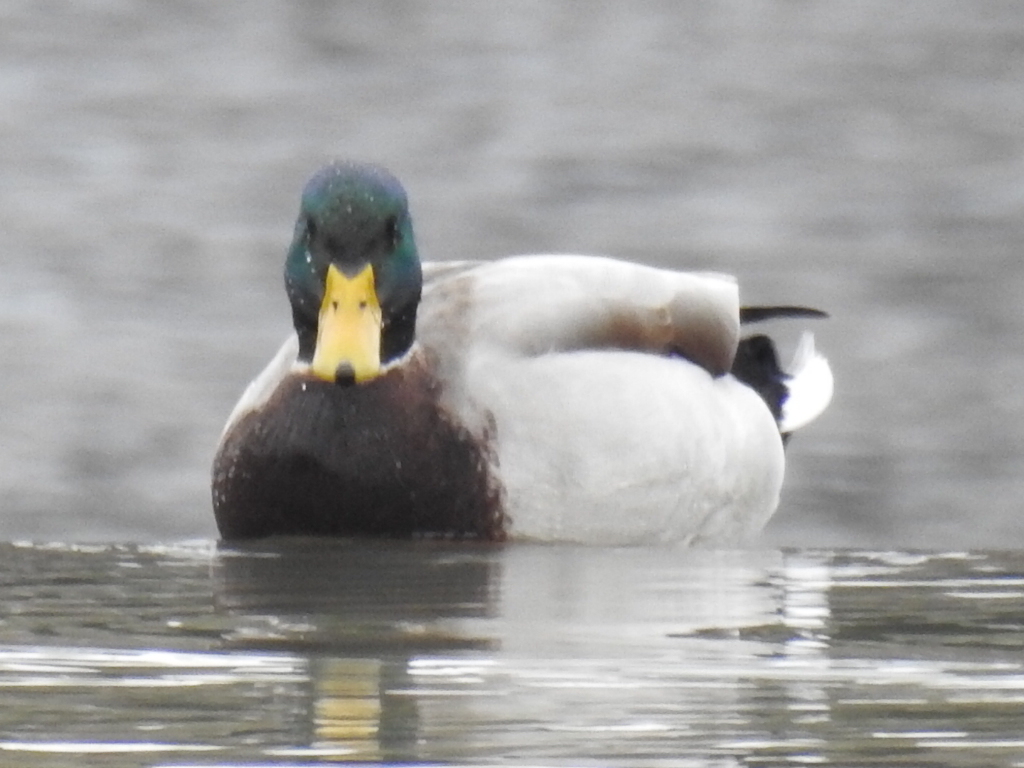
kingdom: Animalia
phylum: Chordata
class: Aves
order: Anseriformes
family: Anatidae
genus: Anas
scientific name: Anas platyrhynchos
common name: Mallard
